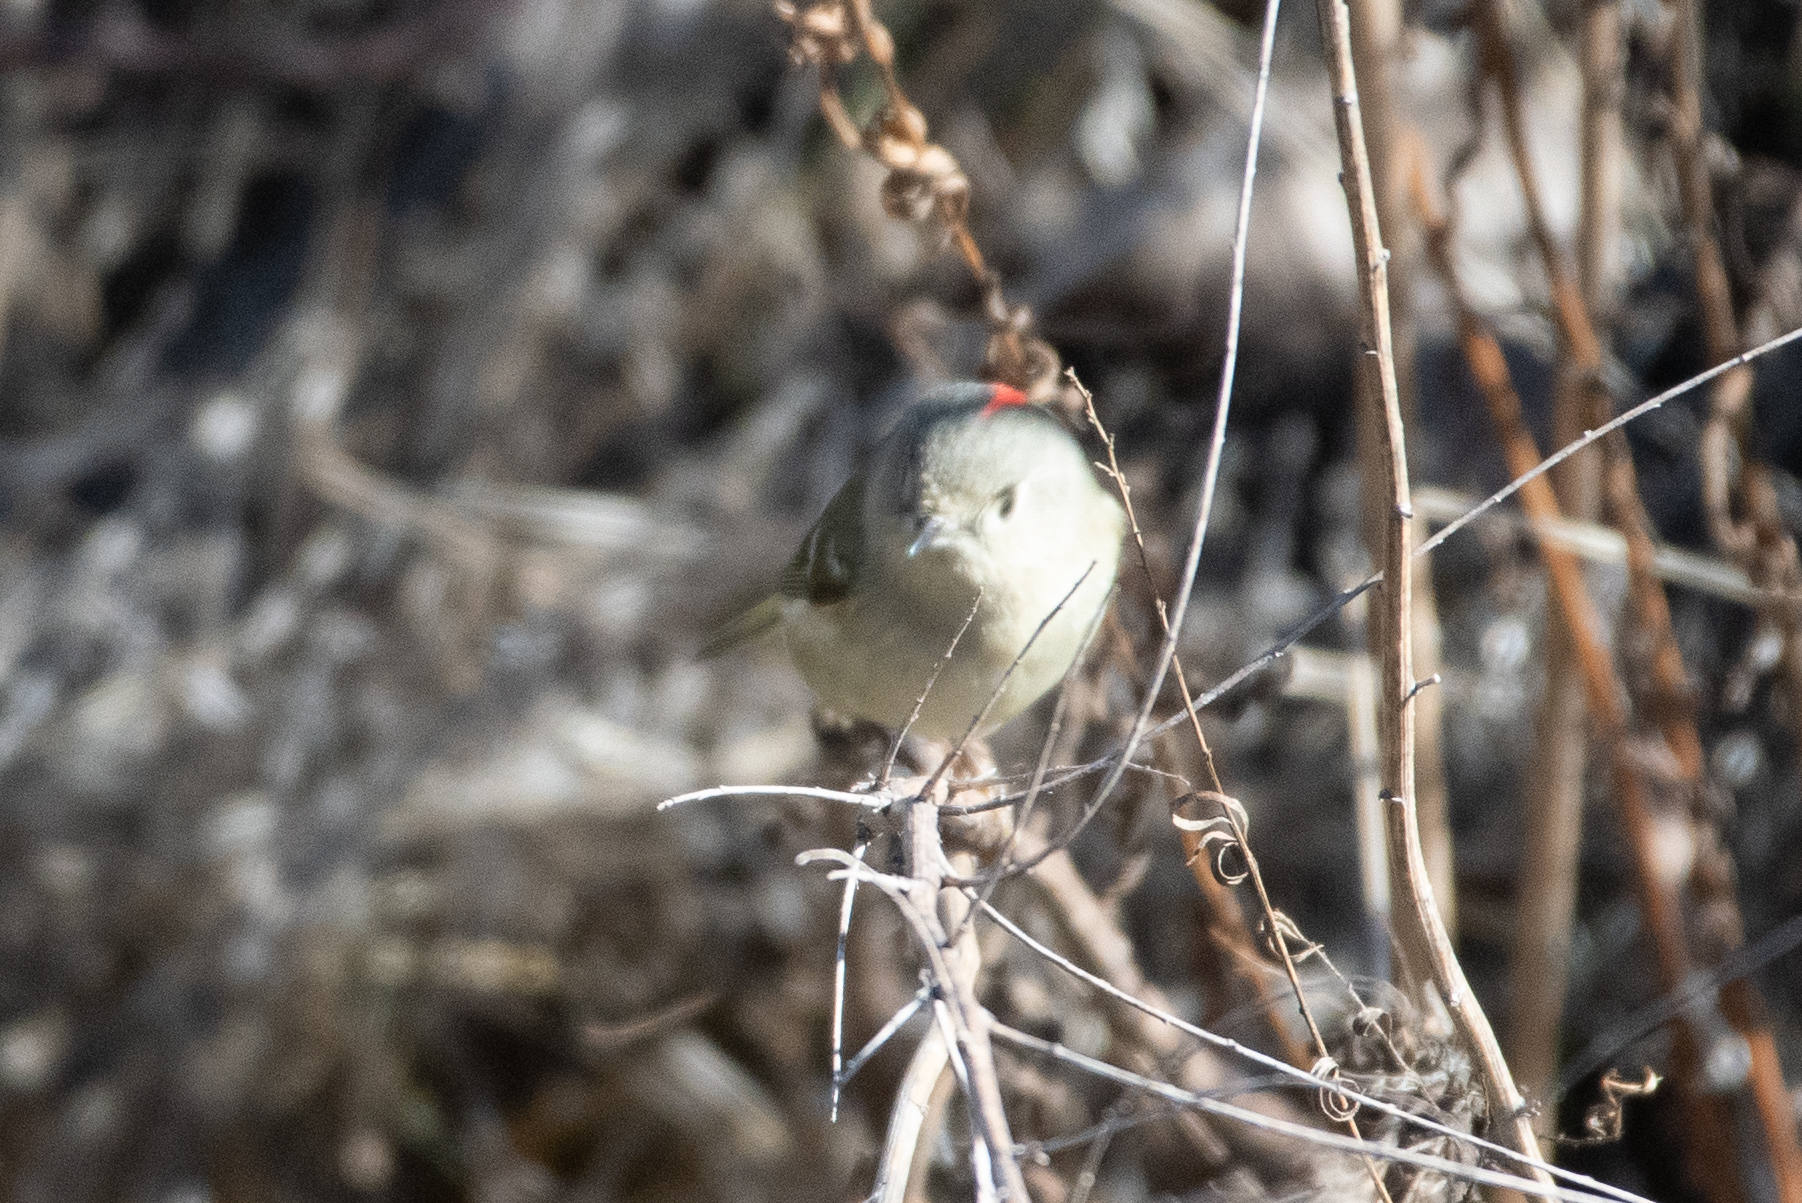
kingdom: Animalia
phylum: Chordata
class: Aves
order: Passeriformes
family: Regulidae
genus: Regulus
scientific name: Regulus calendula
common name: Ruby-crowned kinglet
